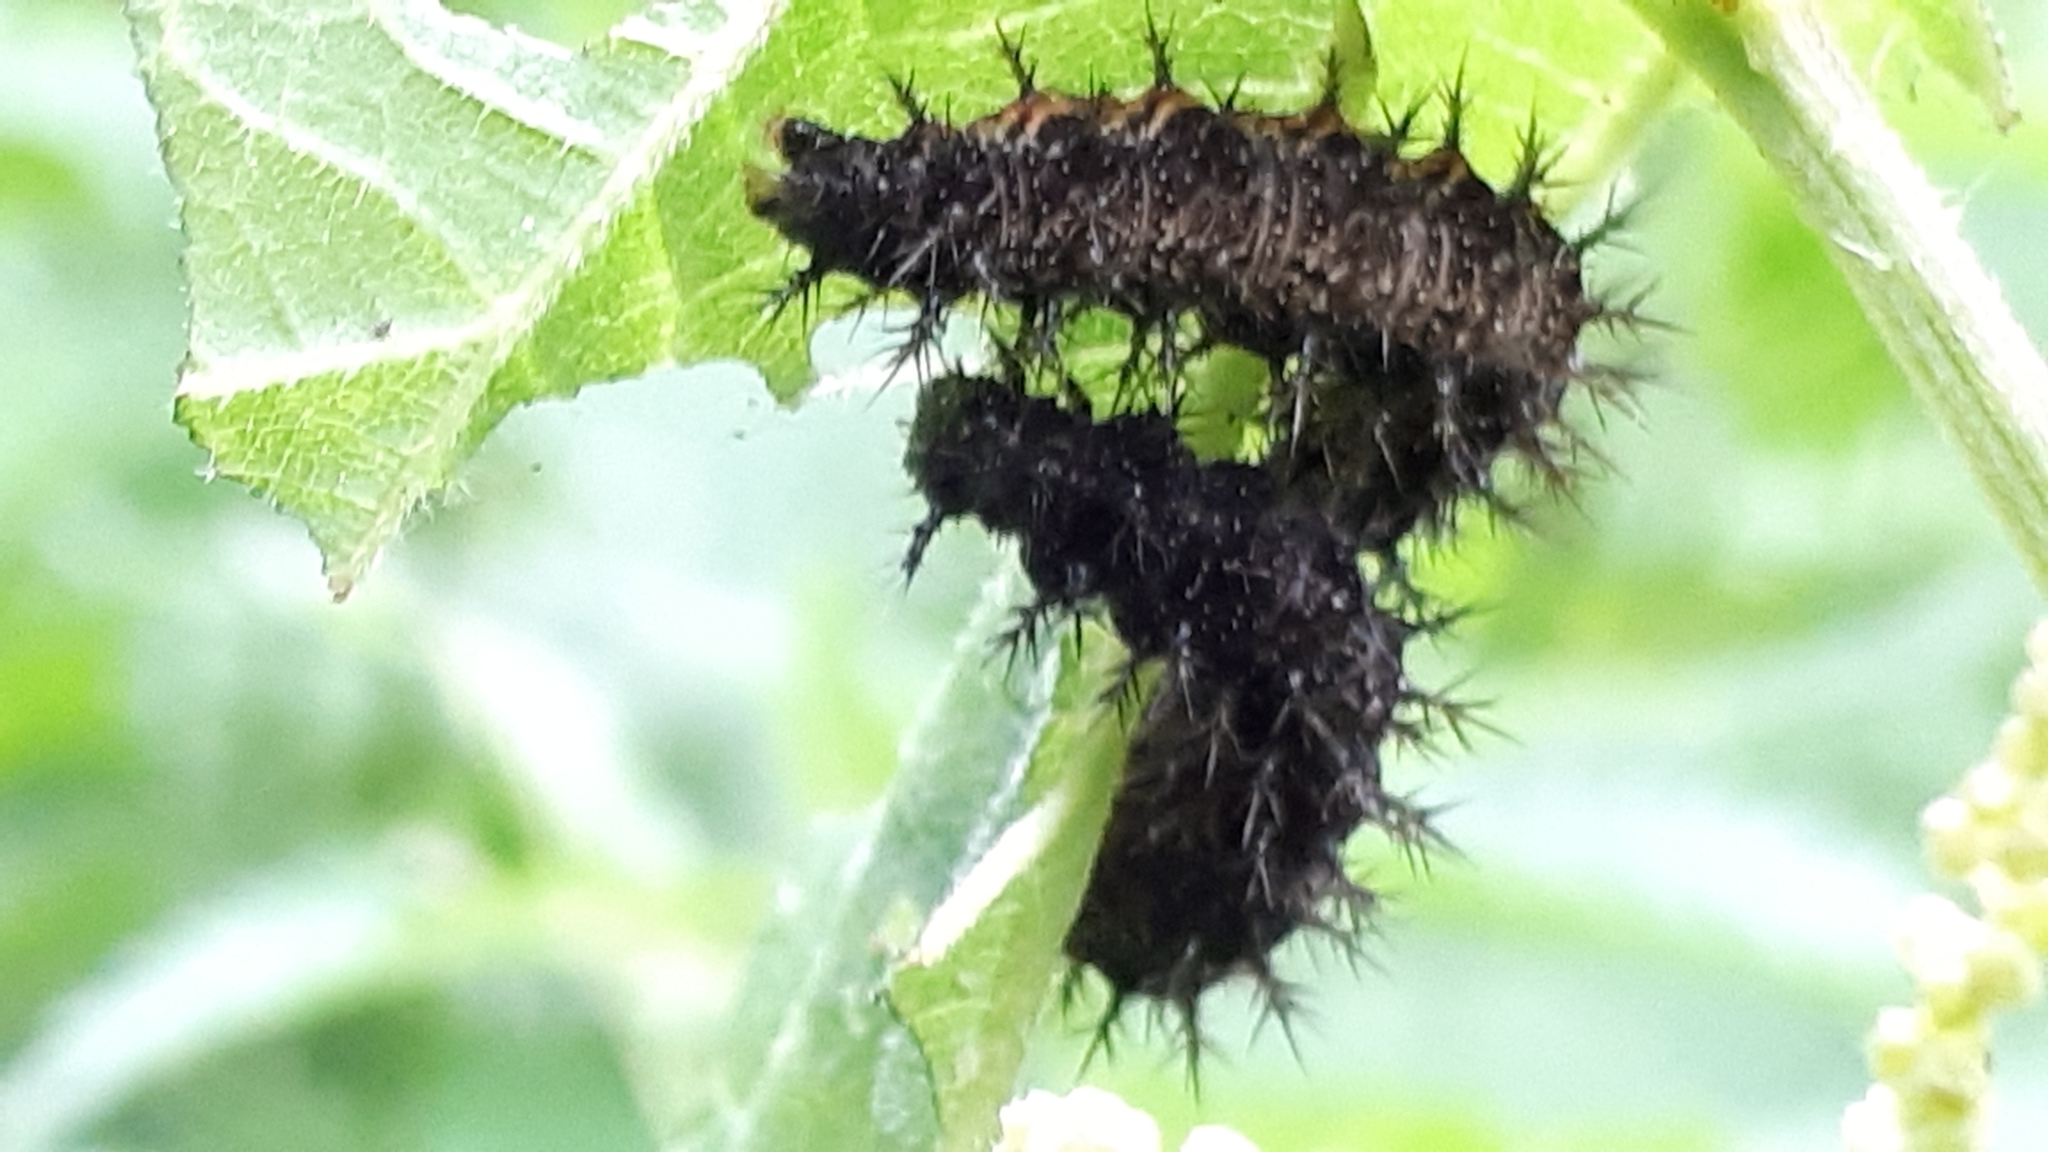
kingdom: Animalia
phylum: Arthropoda
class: Insecta
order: Lepidoptera
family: Nymphalidae
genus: Araschnia
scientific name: Araschnia levana
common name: Map butterfly
